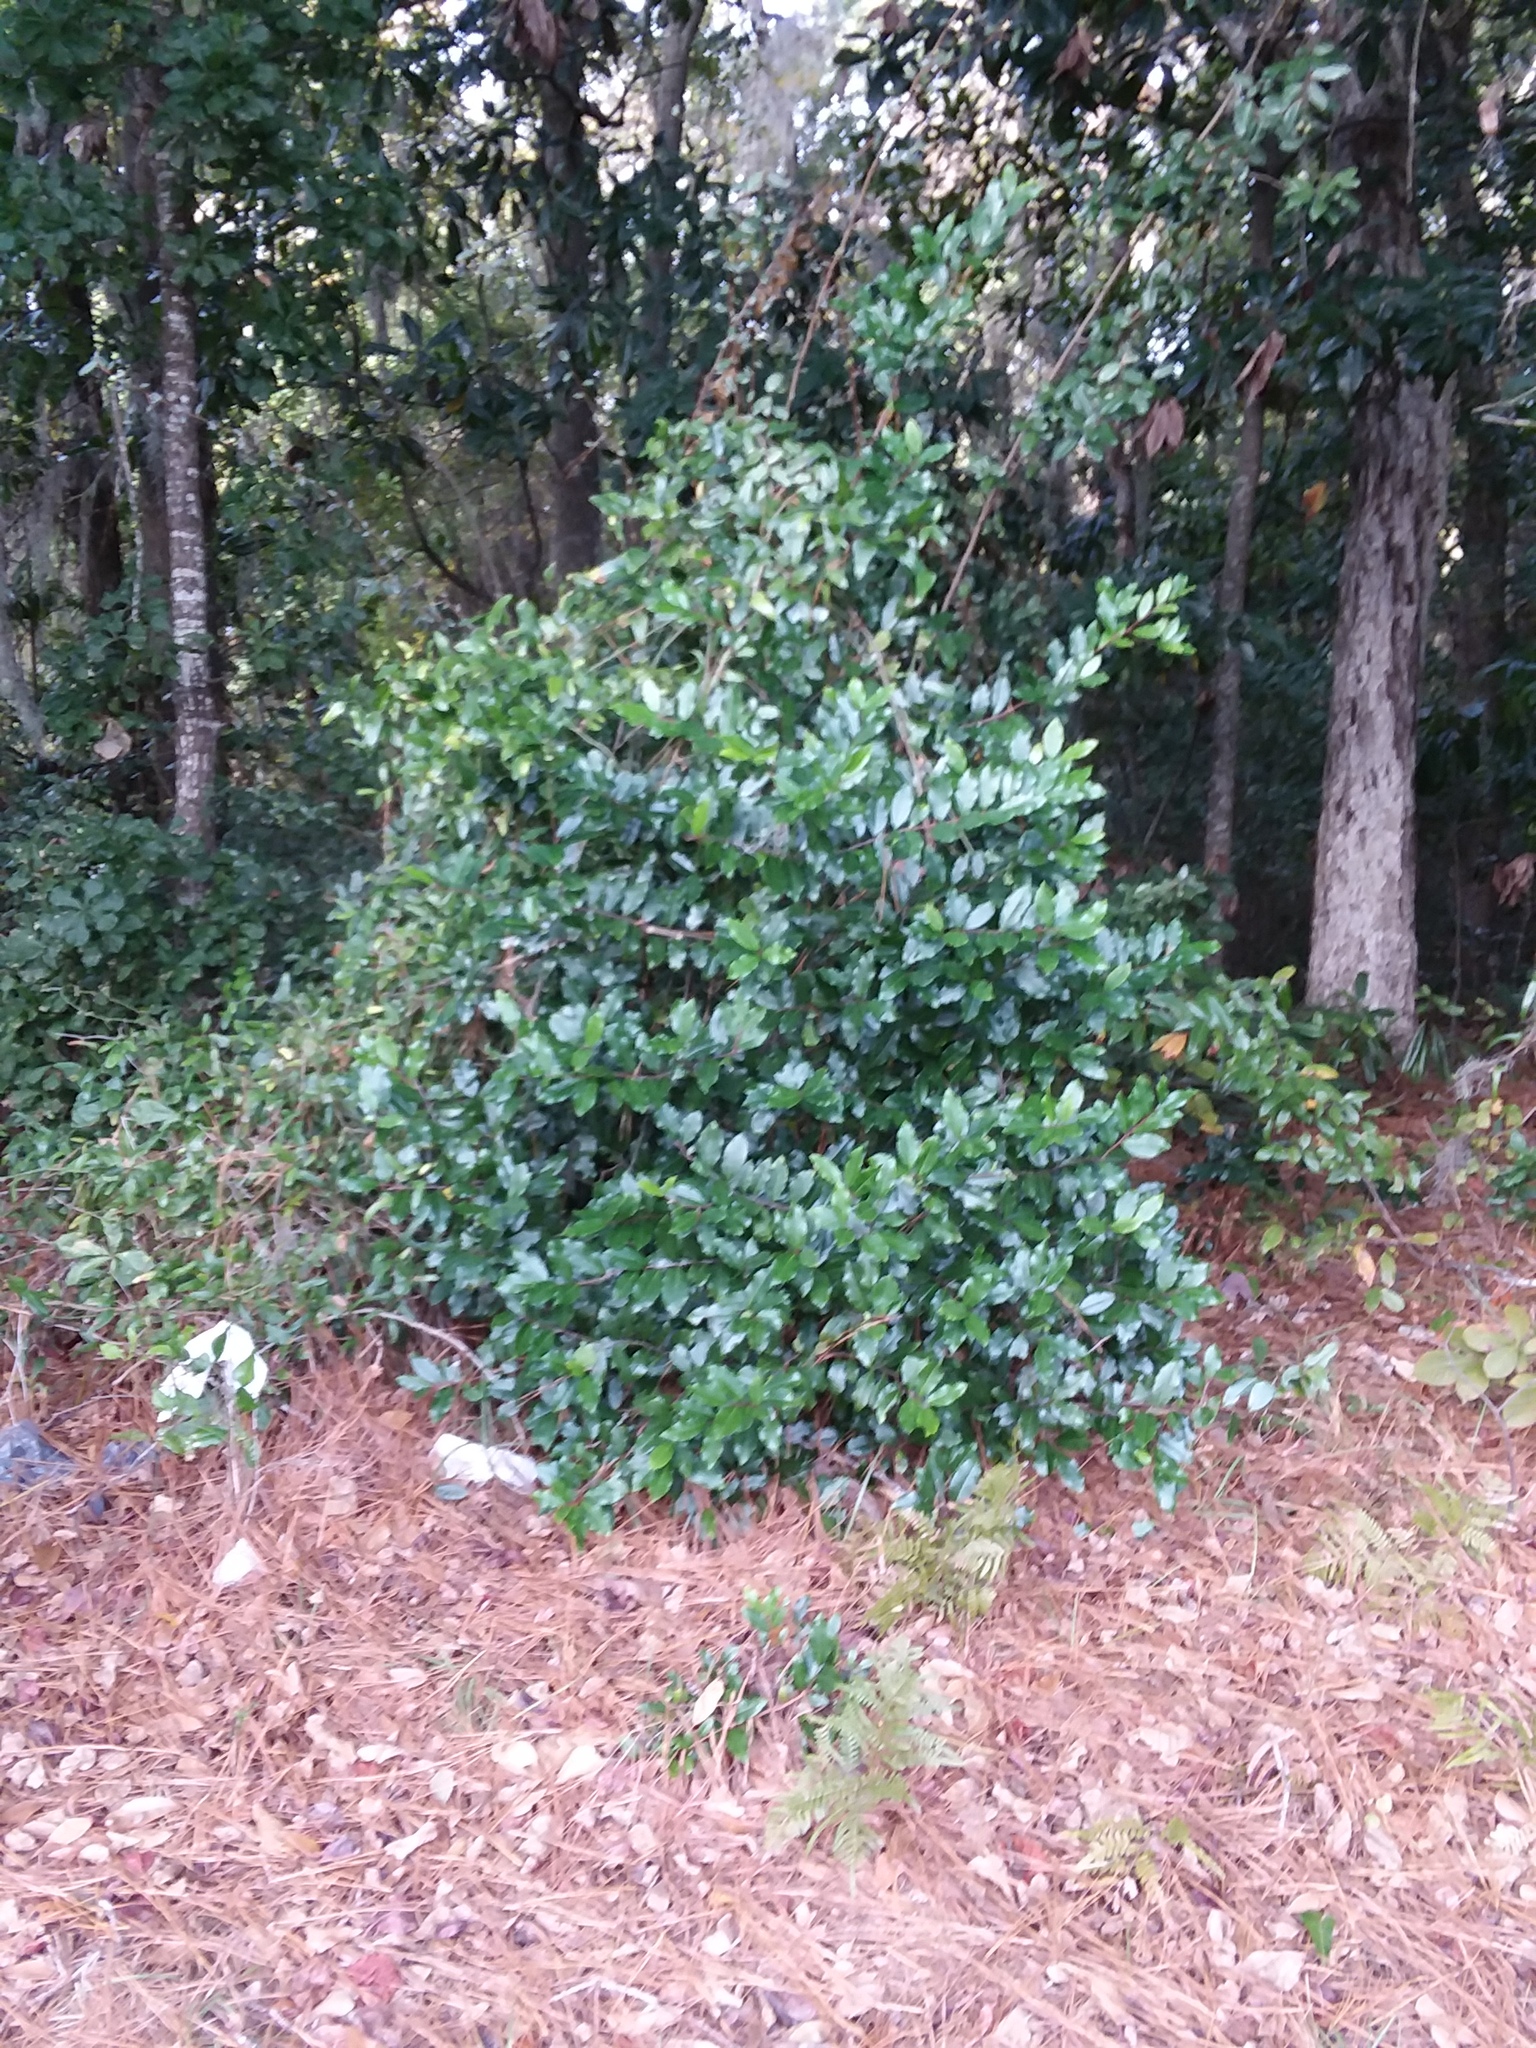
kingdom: Plantae
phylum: Tracheophyta
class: Magnoliopsida
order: Rosales
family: Rosaceae
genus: Prunus
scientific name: Prunus caroliniana
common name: Carolina laurel cherry
